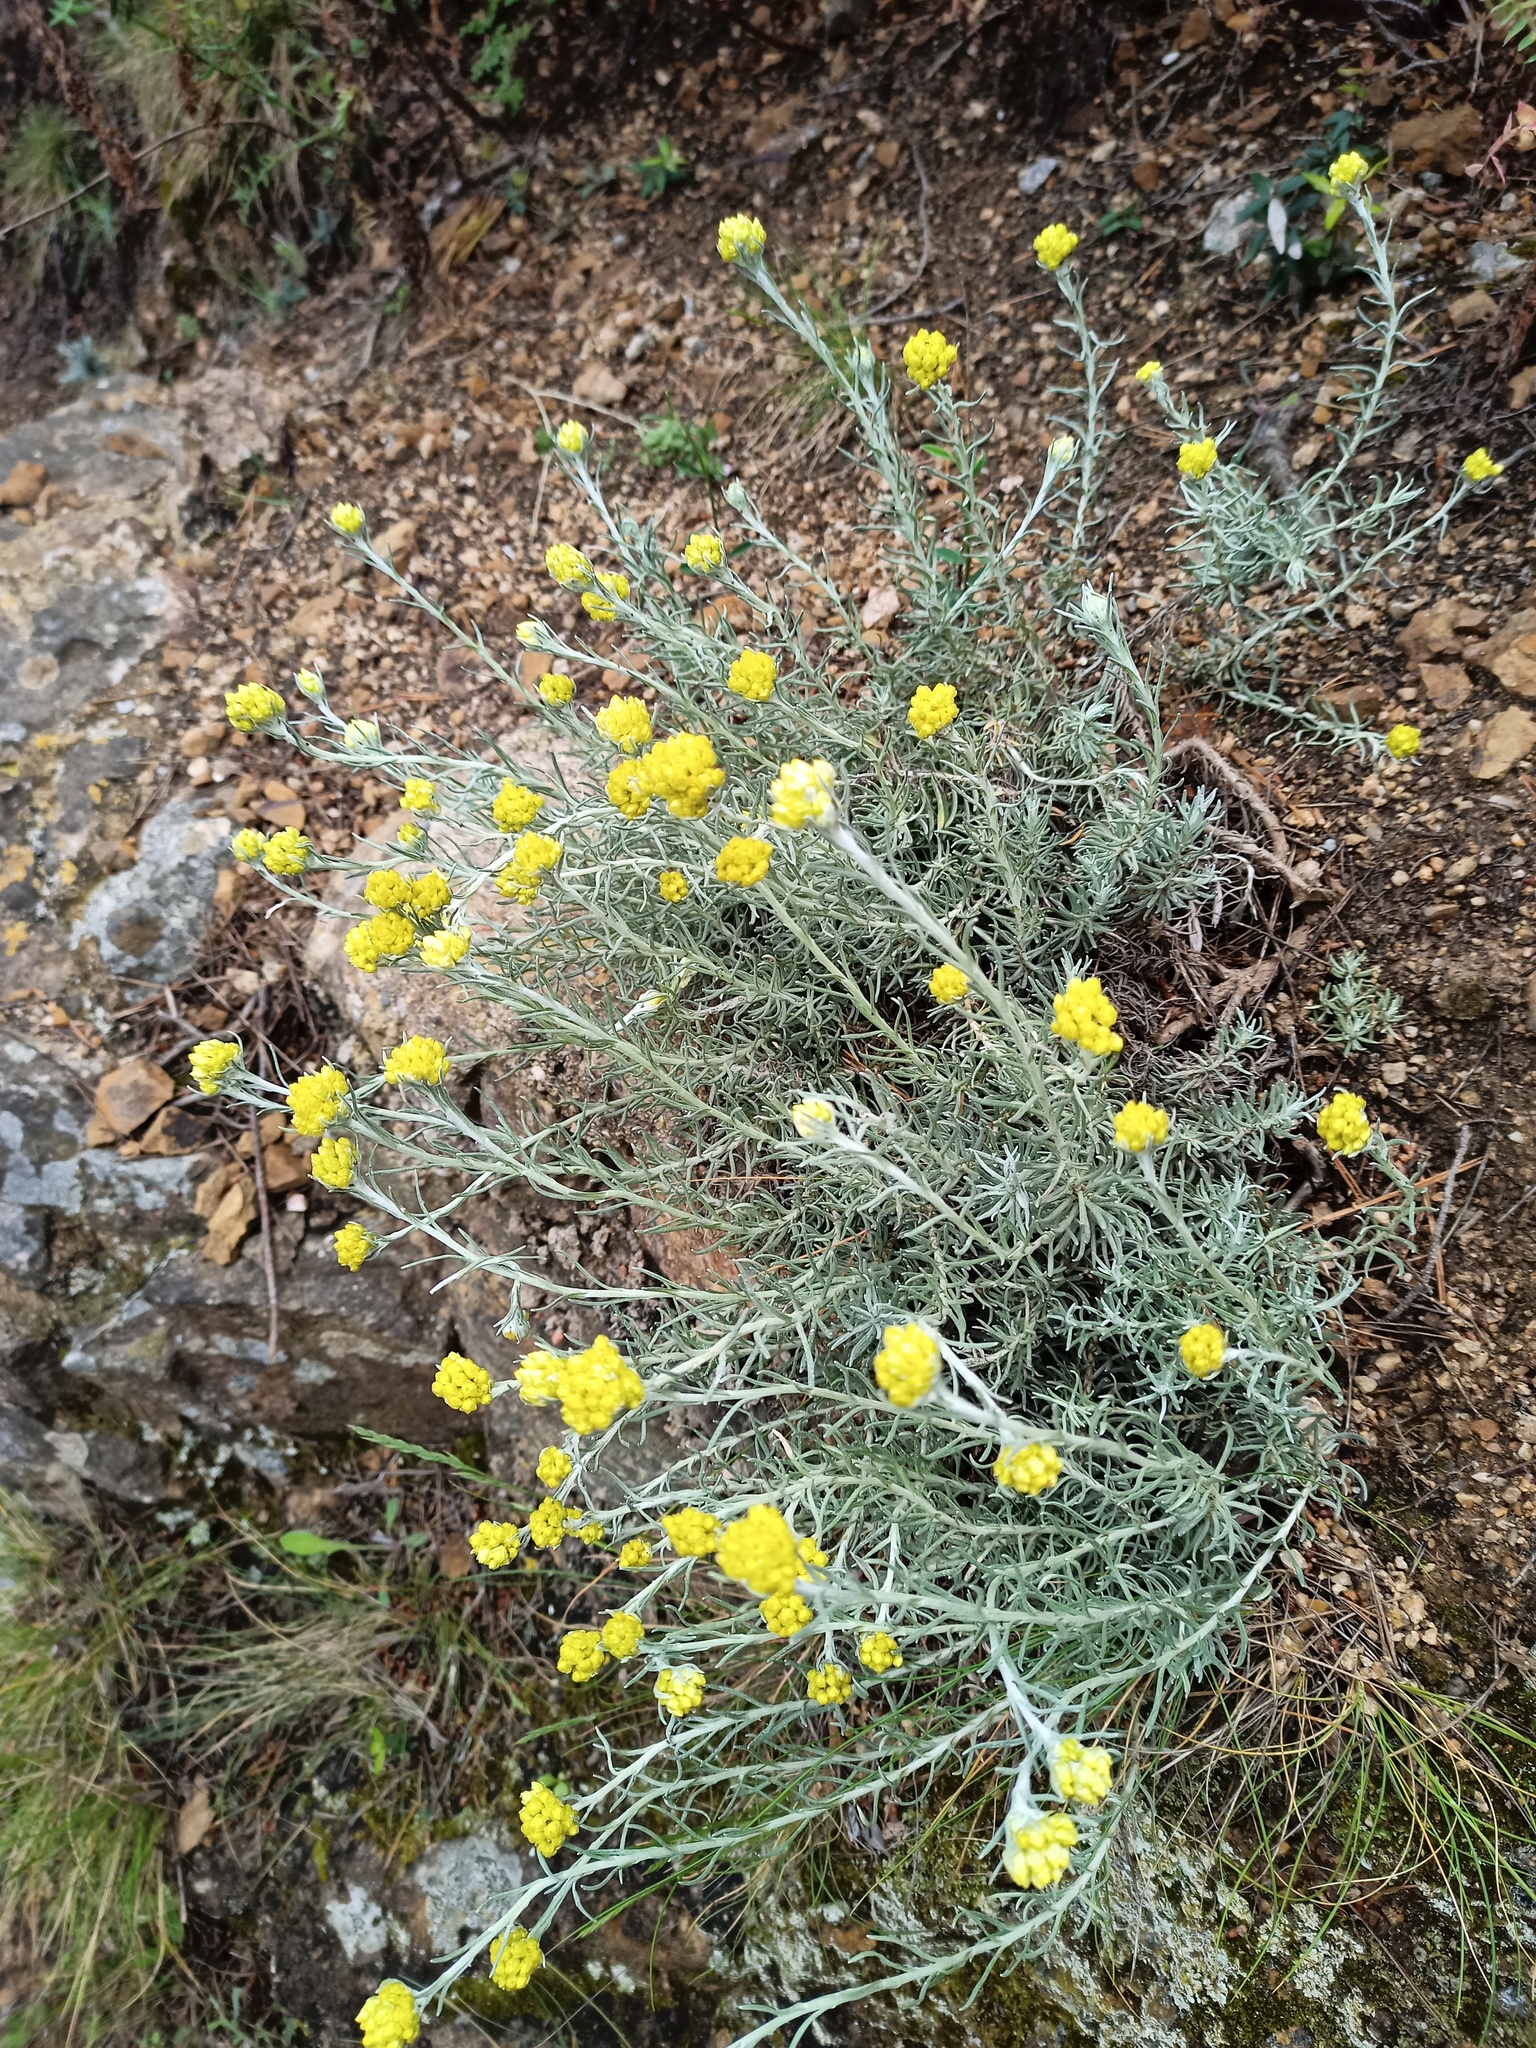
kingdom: Plantae
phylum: Tracheophyta
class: Magnoliopsida
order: Asterales
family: Asteraceae
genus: Helichrysum
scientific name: Helichrysum stoechas
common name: Goldilocks
